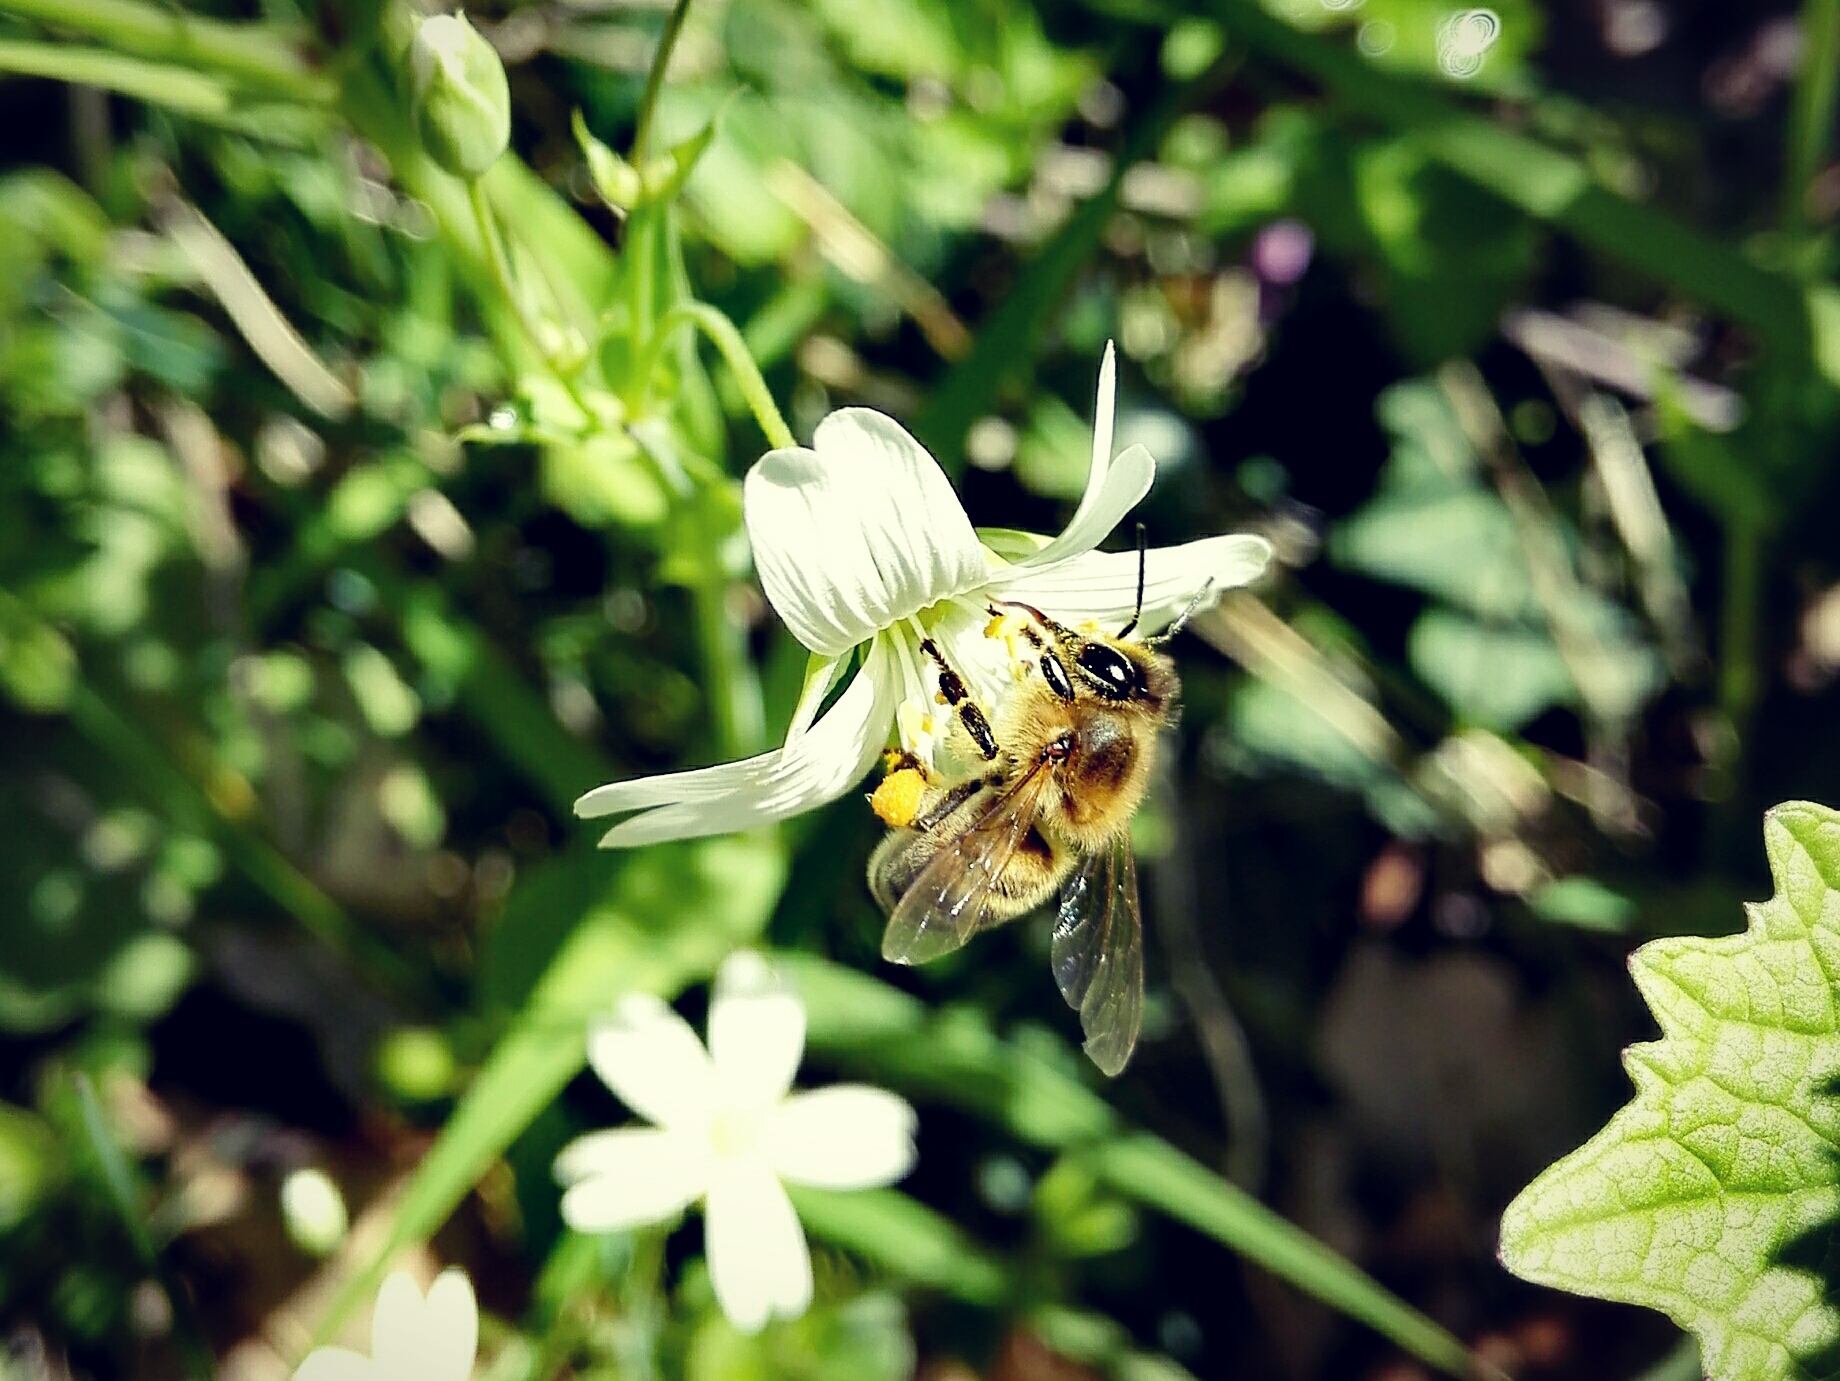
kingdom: Animalia
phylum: Arthropoda
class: Insecta
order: Hymenoptera
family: Apidae
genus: Apis
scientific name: Apis mellifera
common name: Honey bee
